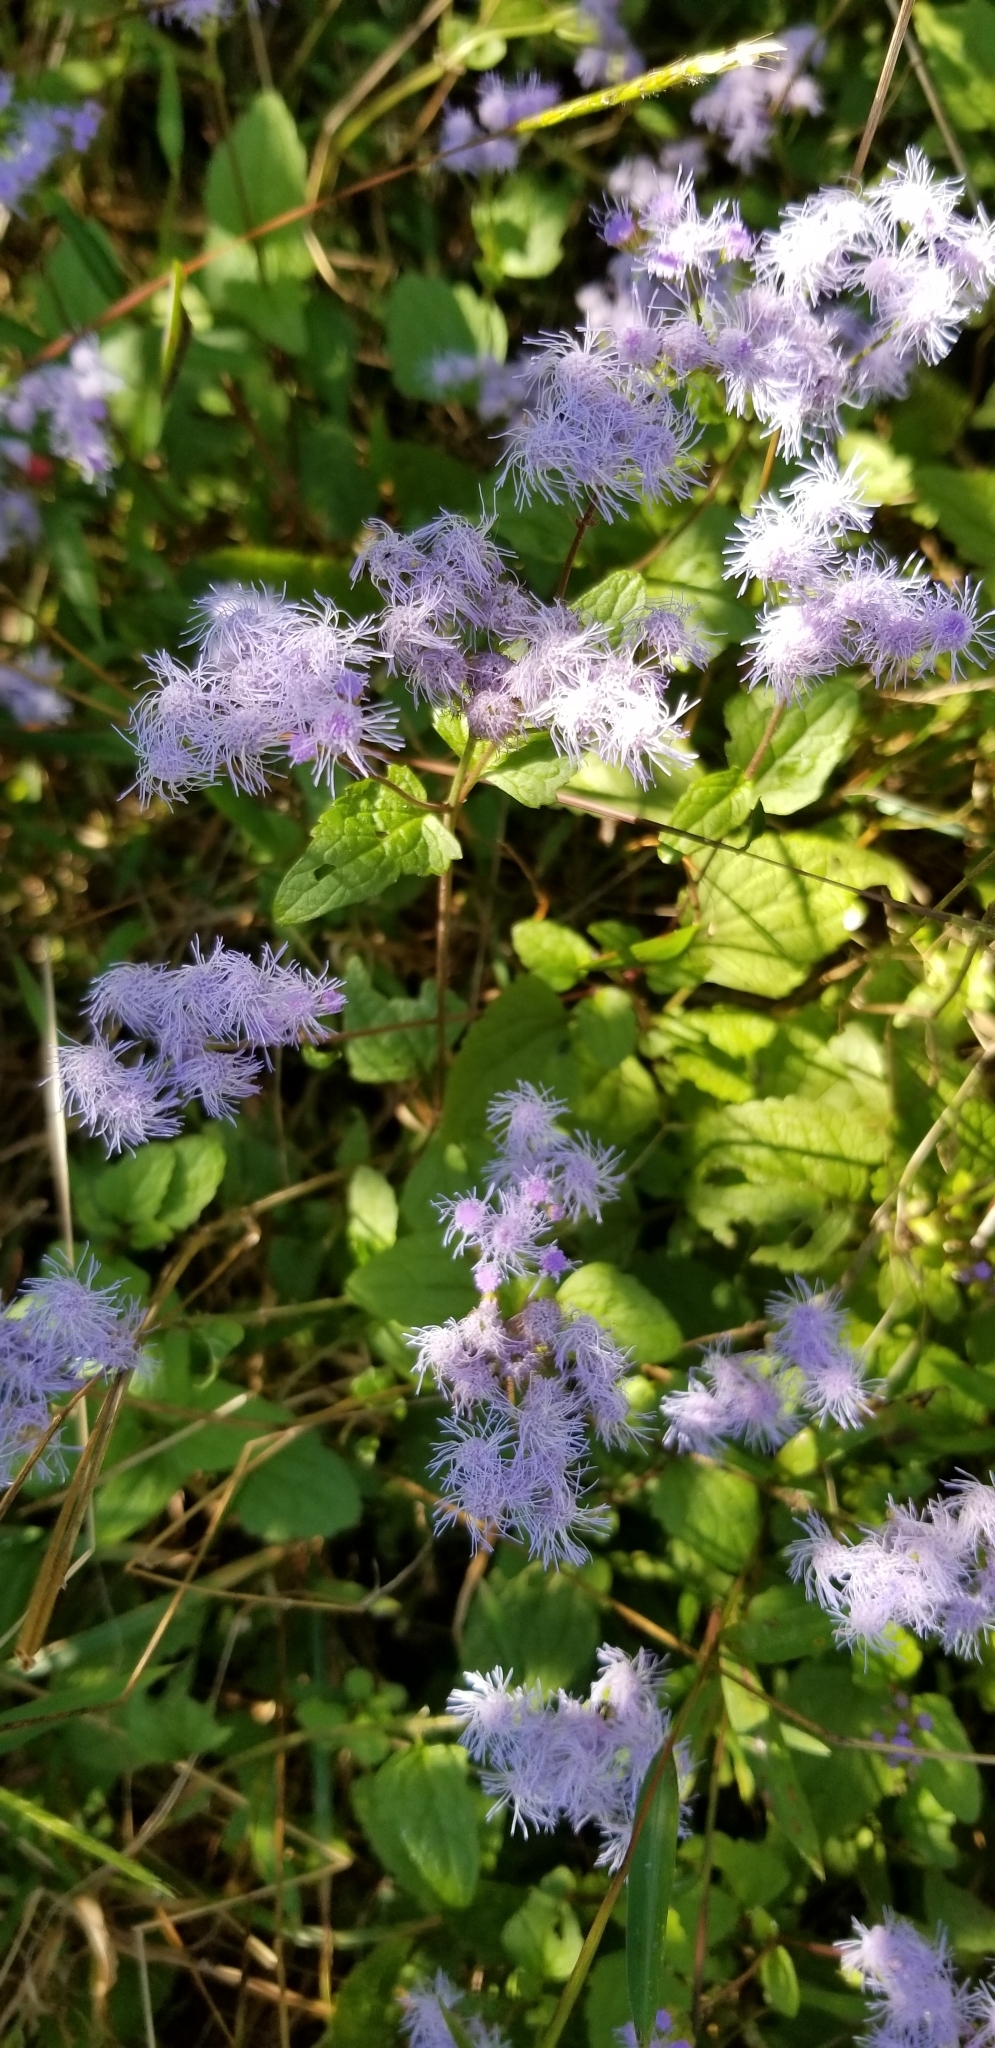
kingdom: Plantae
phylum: Tracheophyta
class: Magnoliopsida
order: Asterales
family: Asteraceae
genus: Conoclinium
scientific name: Conoclinium coelestinum
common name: Blue mistflower
